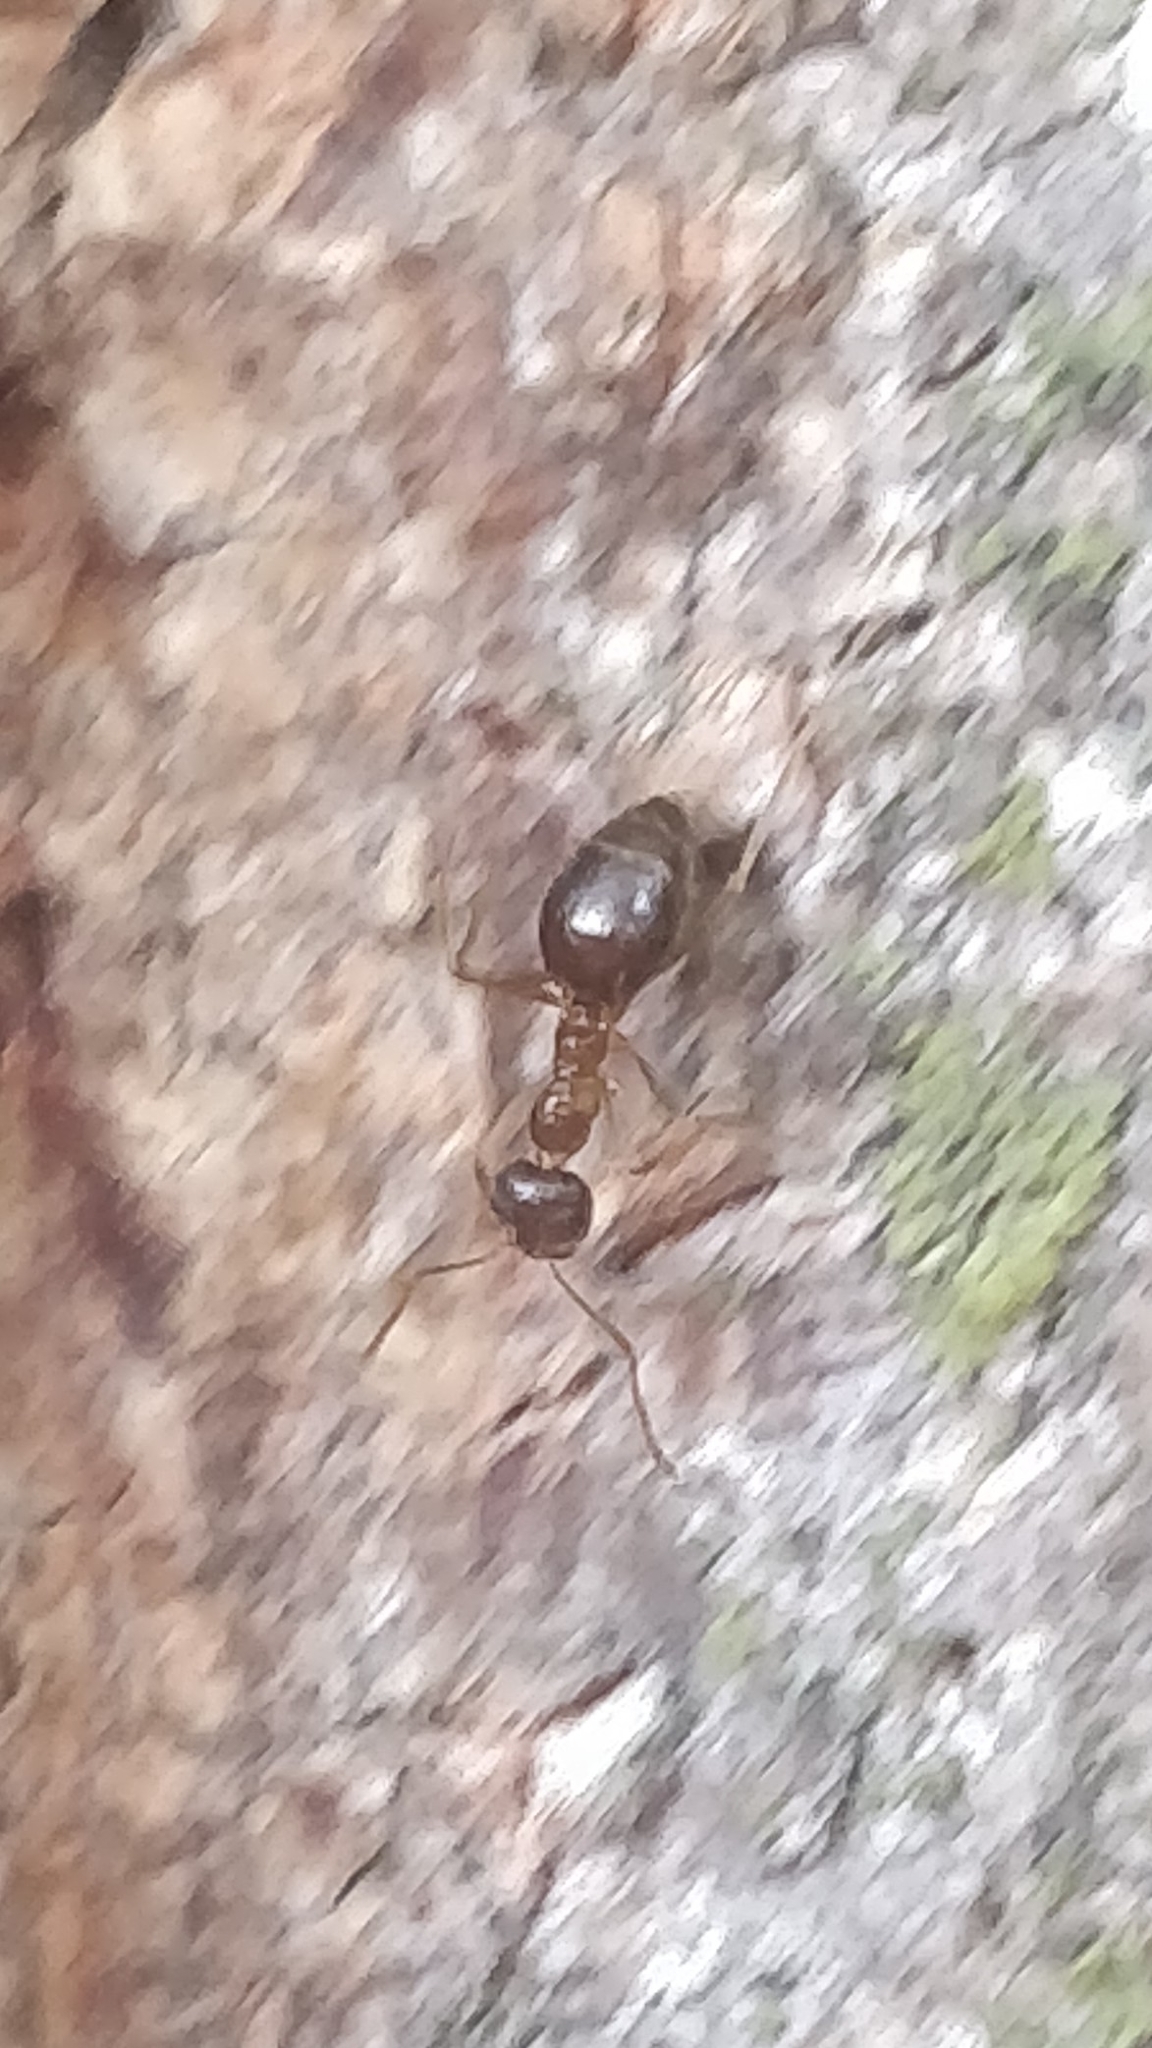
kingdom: Animalia
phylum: Arthropoda
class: Insecta
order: Hymenoptera
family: Formicidae
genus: Prenolepis
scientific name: Prenolepis imparis
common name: Small honey ant
